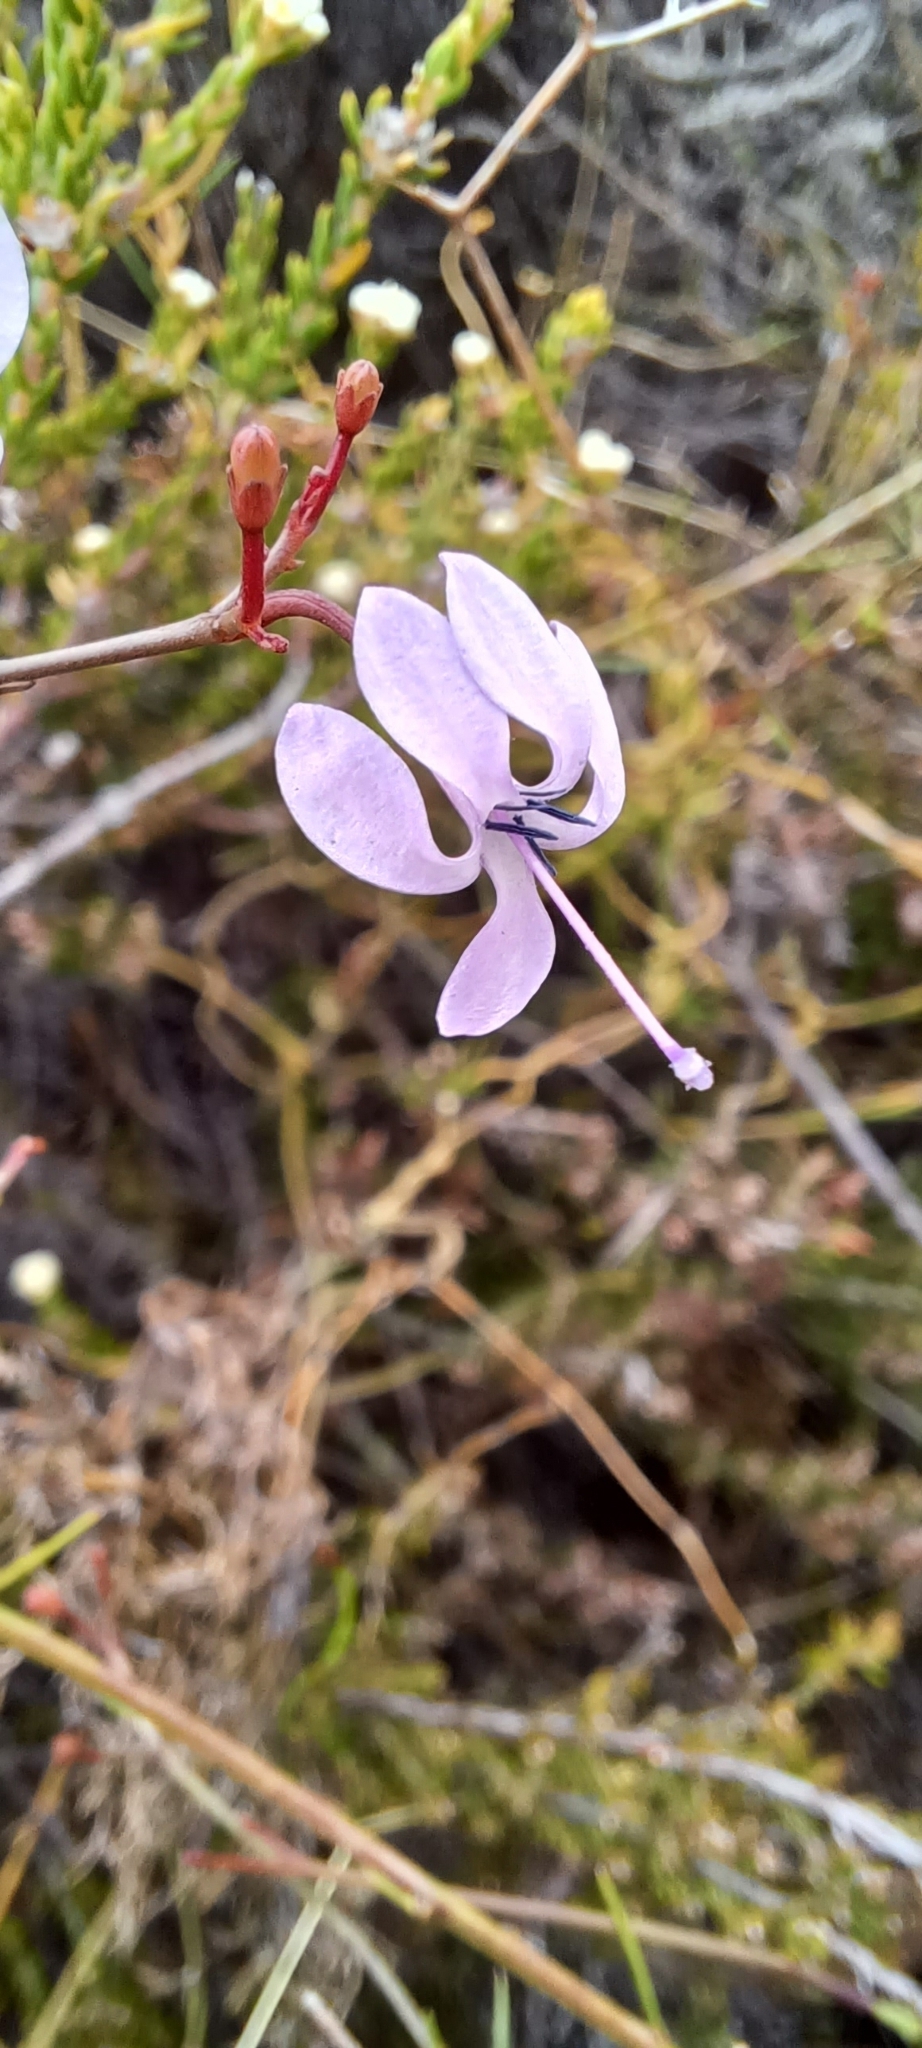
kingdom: Plantae
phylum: Tracheophyta
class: Magnoliopsida
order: Asterales
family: Campanulaceae
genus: Prismatocarpus
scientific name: Prismatocarpus diffusus
